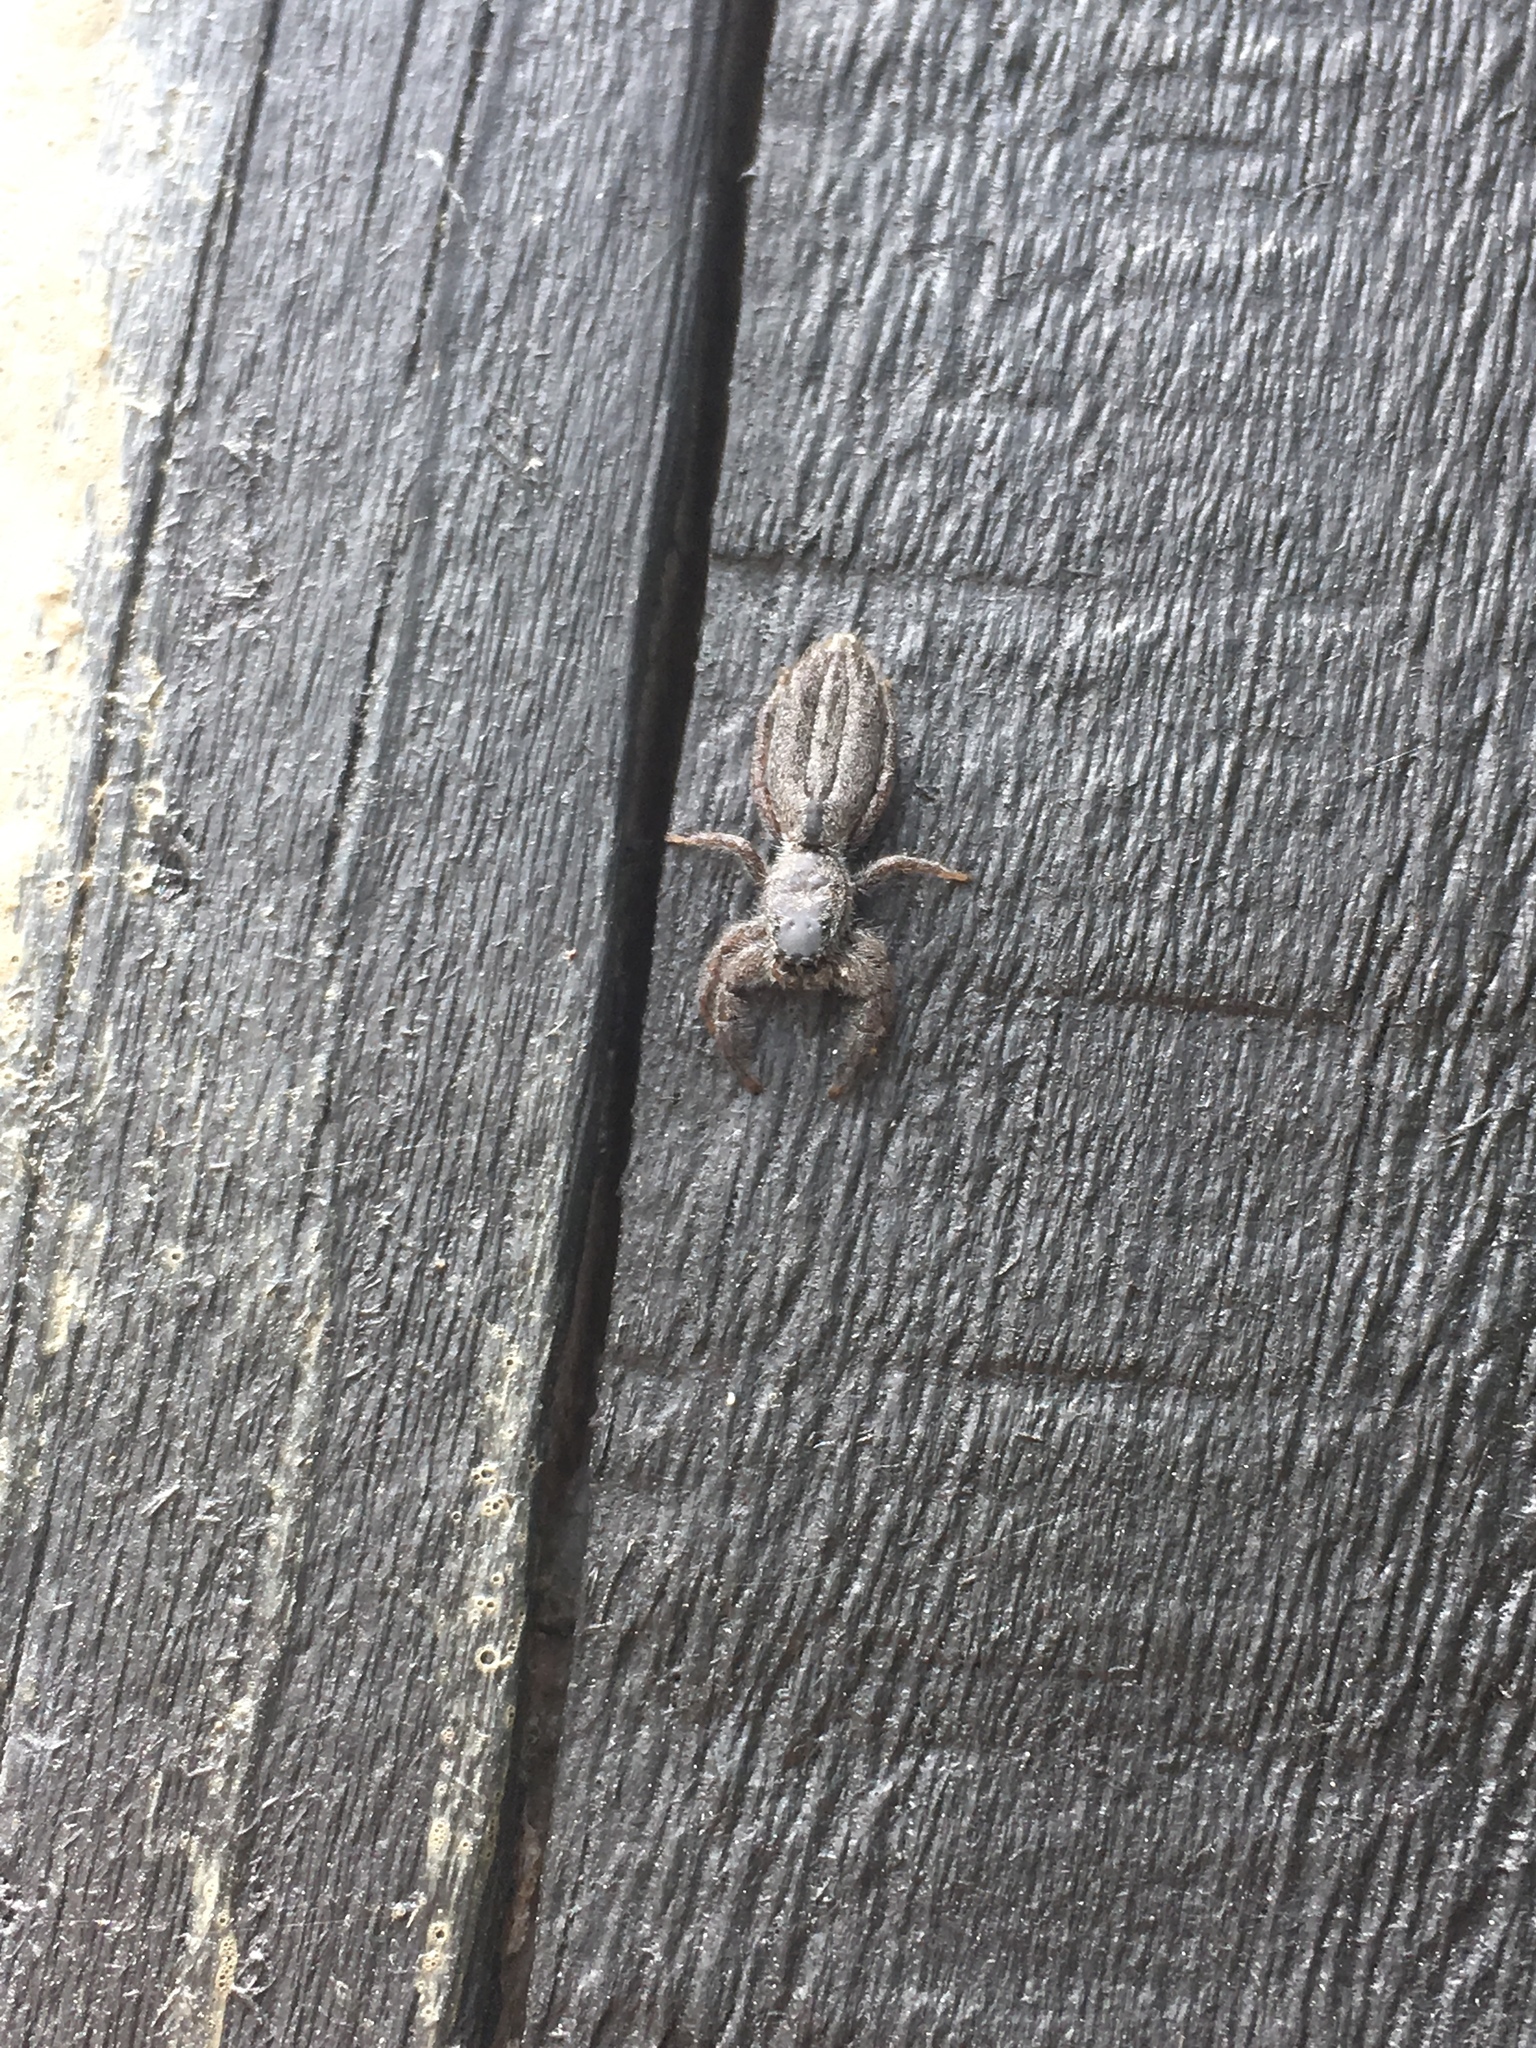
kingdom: Animalia
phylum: Arthropoda
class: Arachnida
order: Araneae
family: Salticidae
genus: Holoplatys
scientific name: Holoplatys apressus
